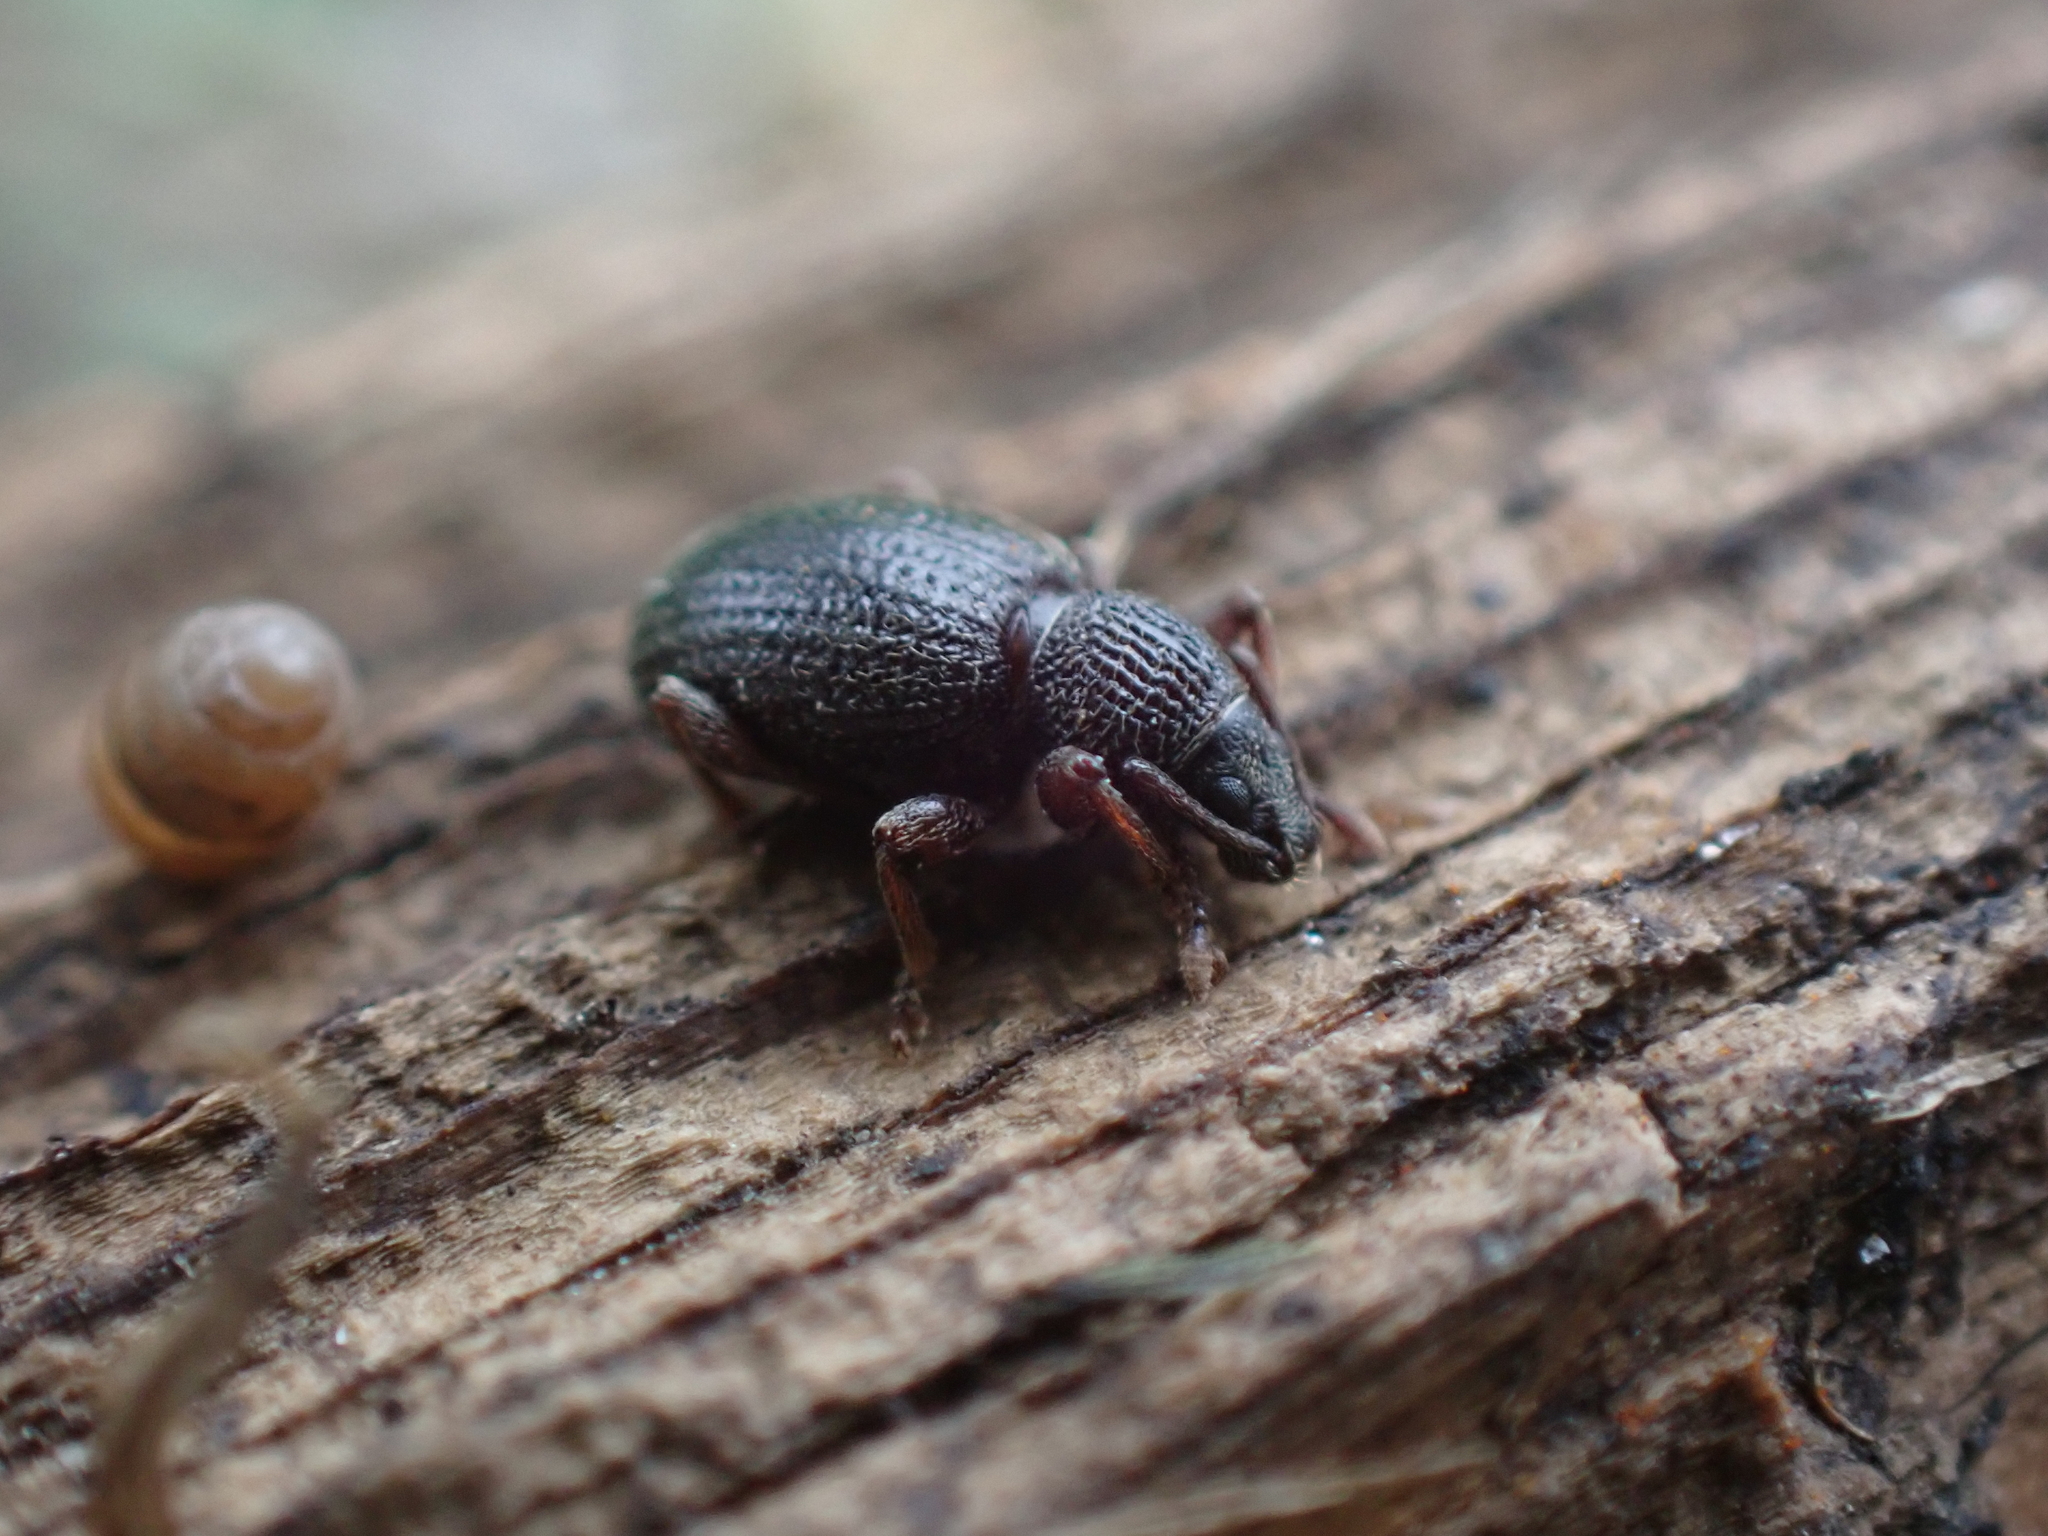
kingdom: Animalia
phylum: Arthropoda
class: Insecta
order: Coleoptera
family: Curculionidae
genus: Otiorhynchus
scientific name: Otiorhynchus ovatus
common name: Strawberry root weevil
